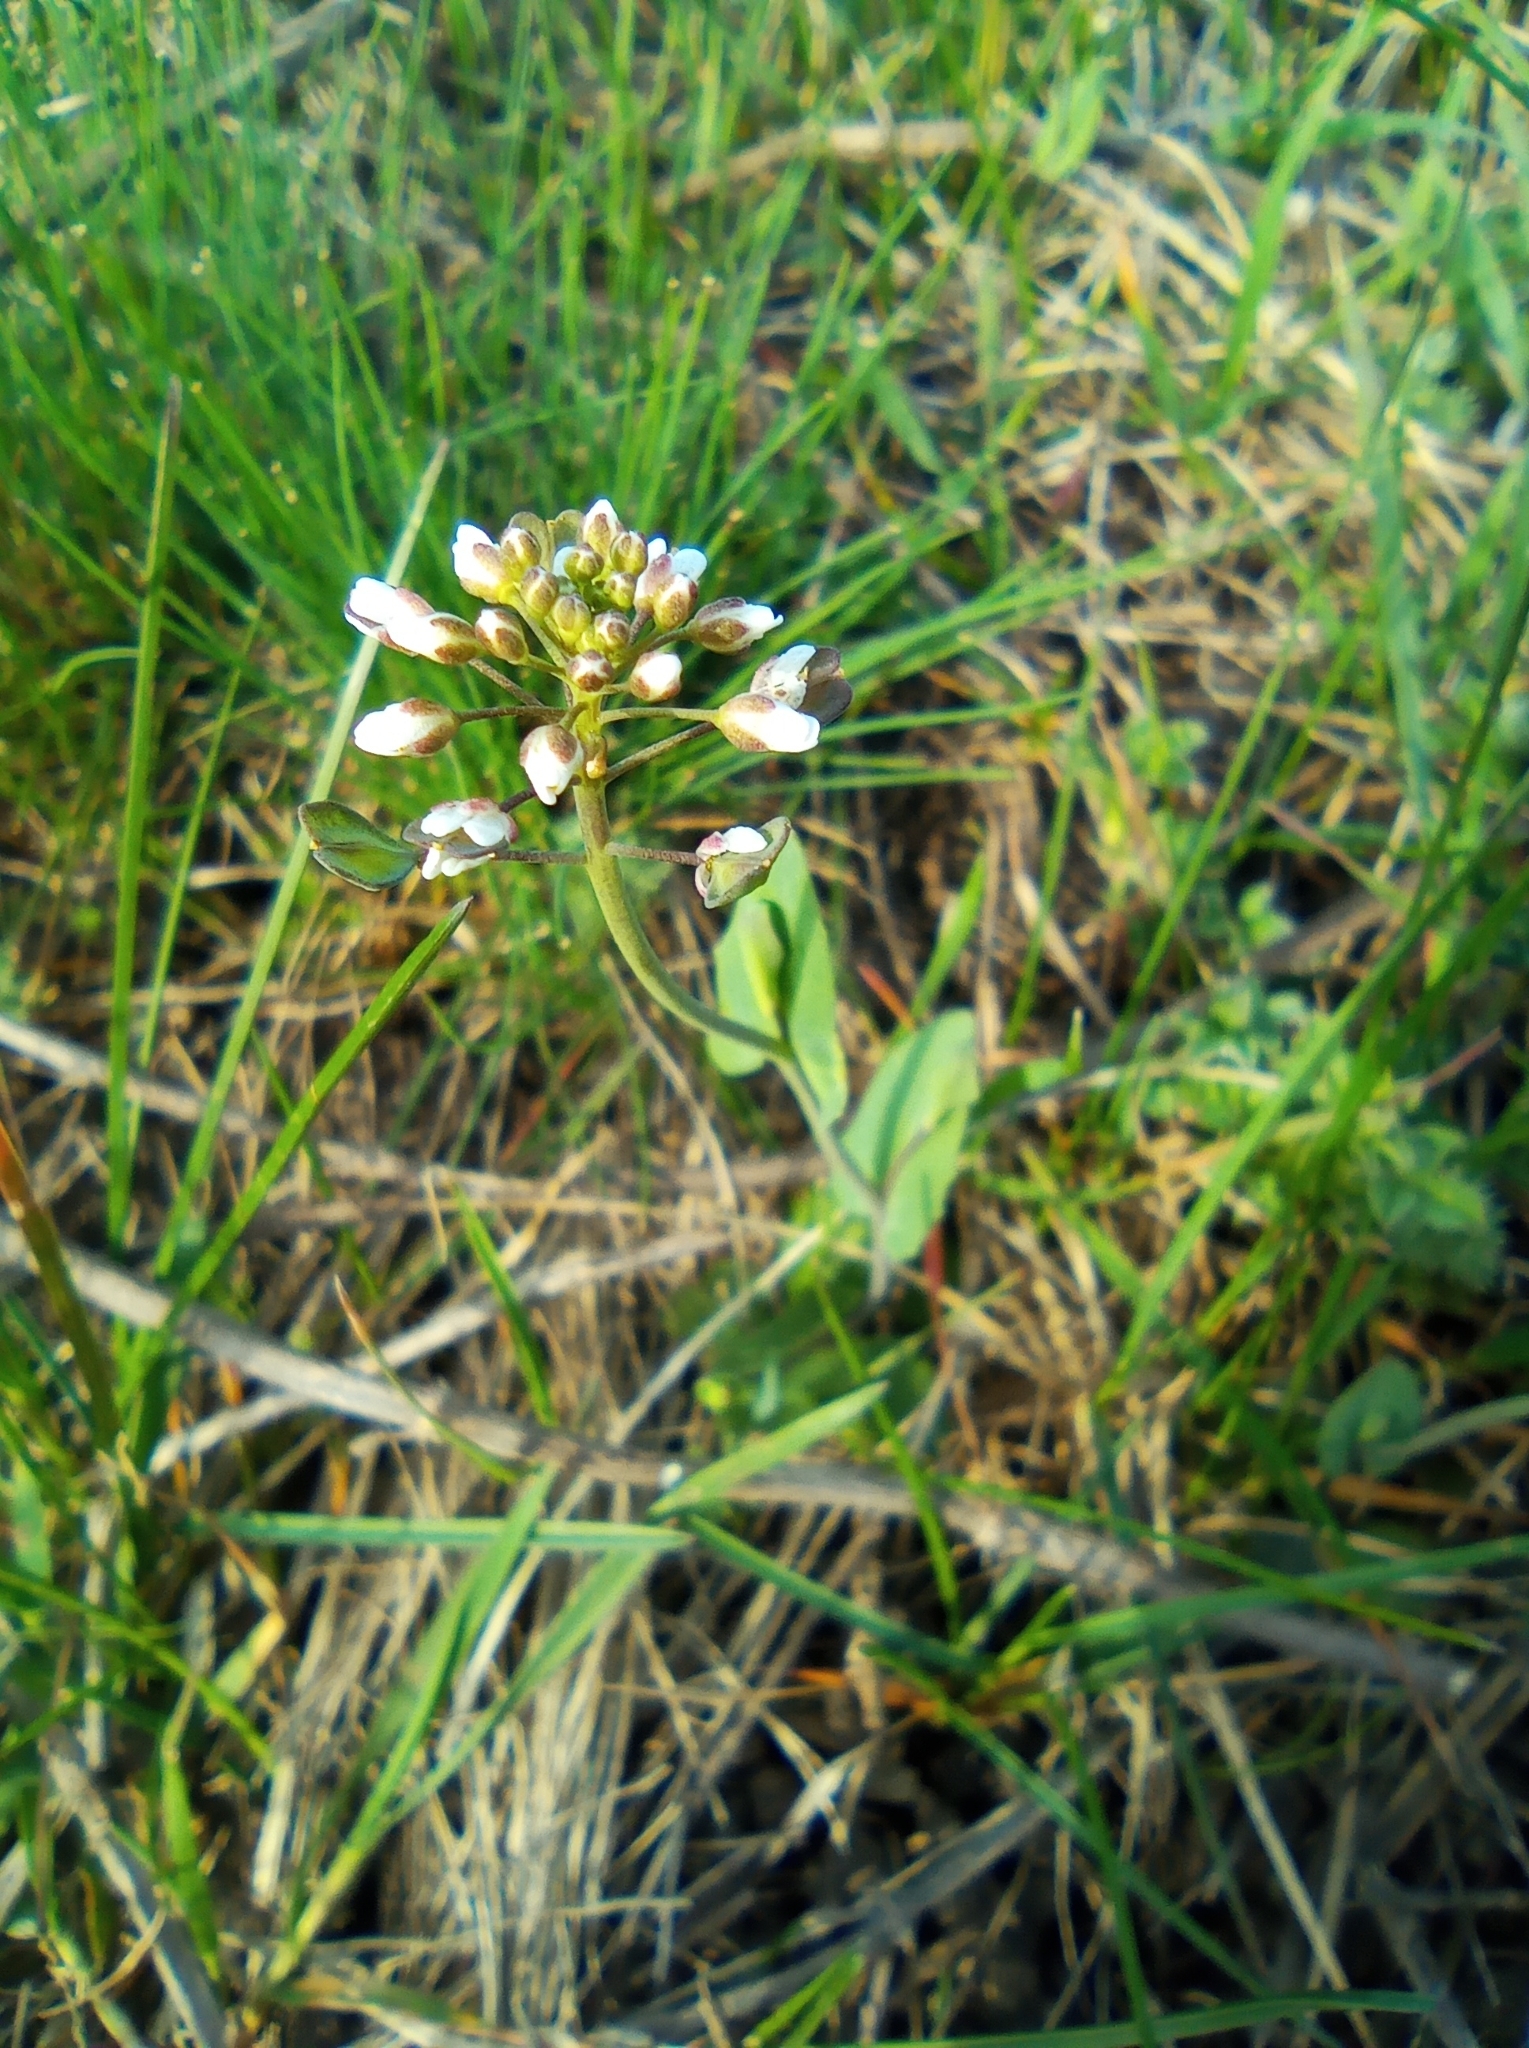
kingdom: Plantae
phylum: Tracheophyta
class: Magnoliopsida
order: Brassicales
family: Brassicaceae
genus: Noccaea
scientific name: Noccaea perfoliata
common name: Perfoliate pennycress
